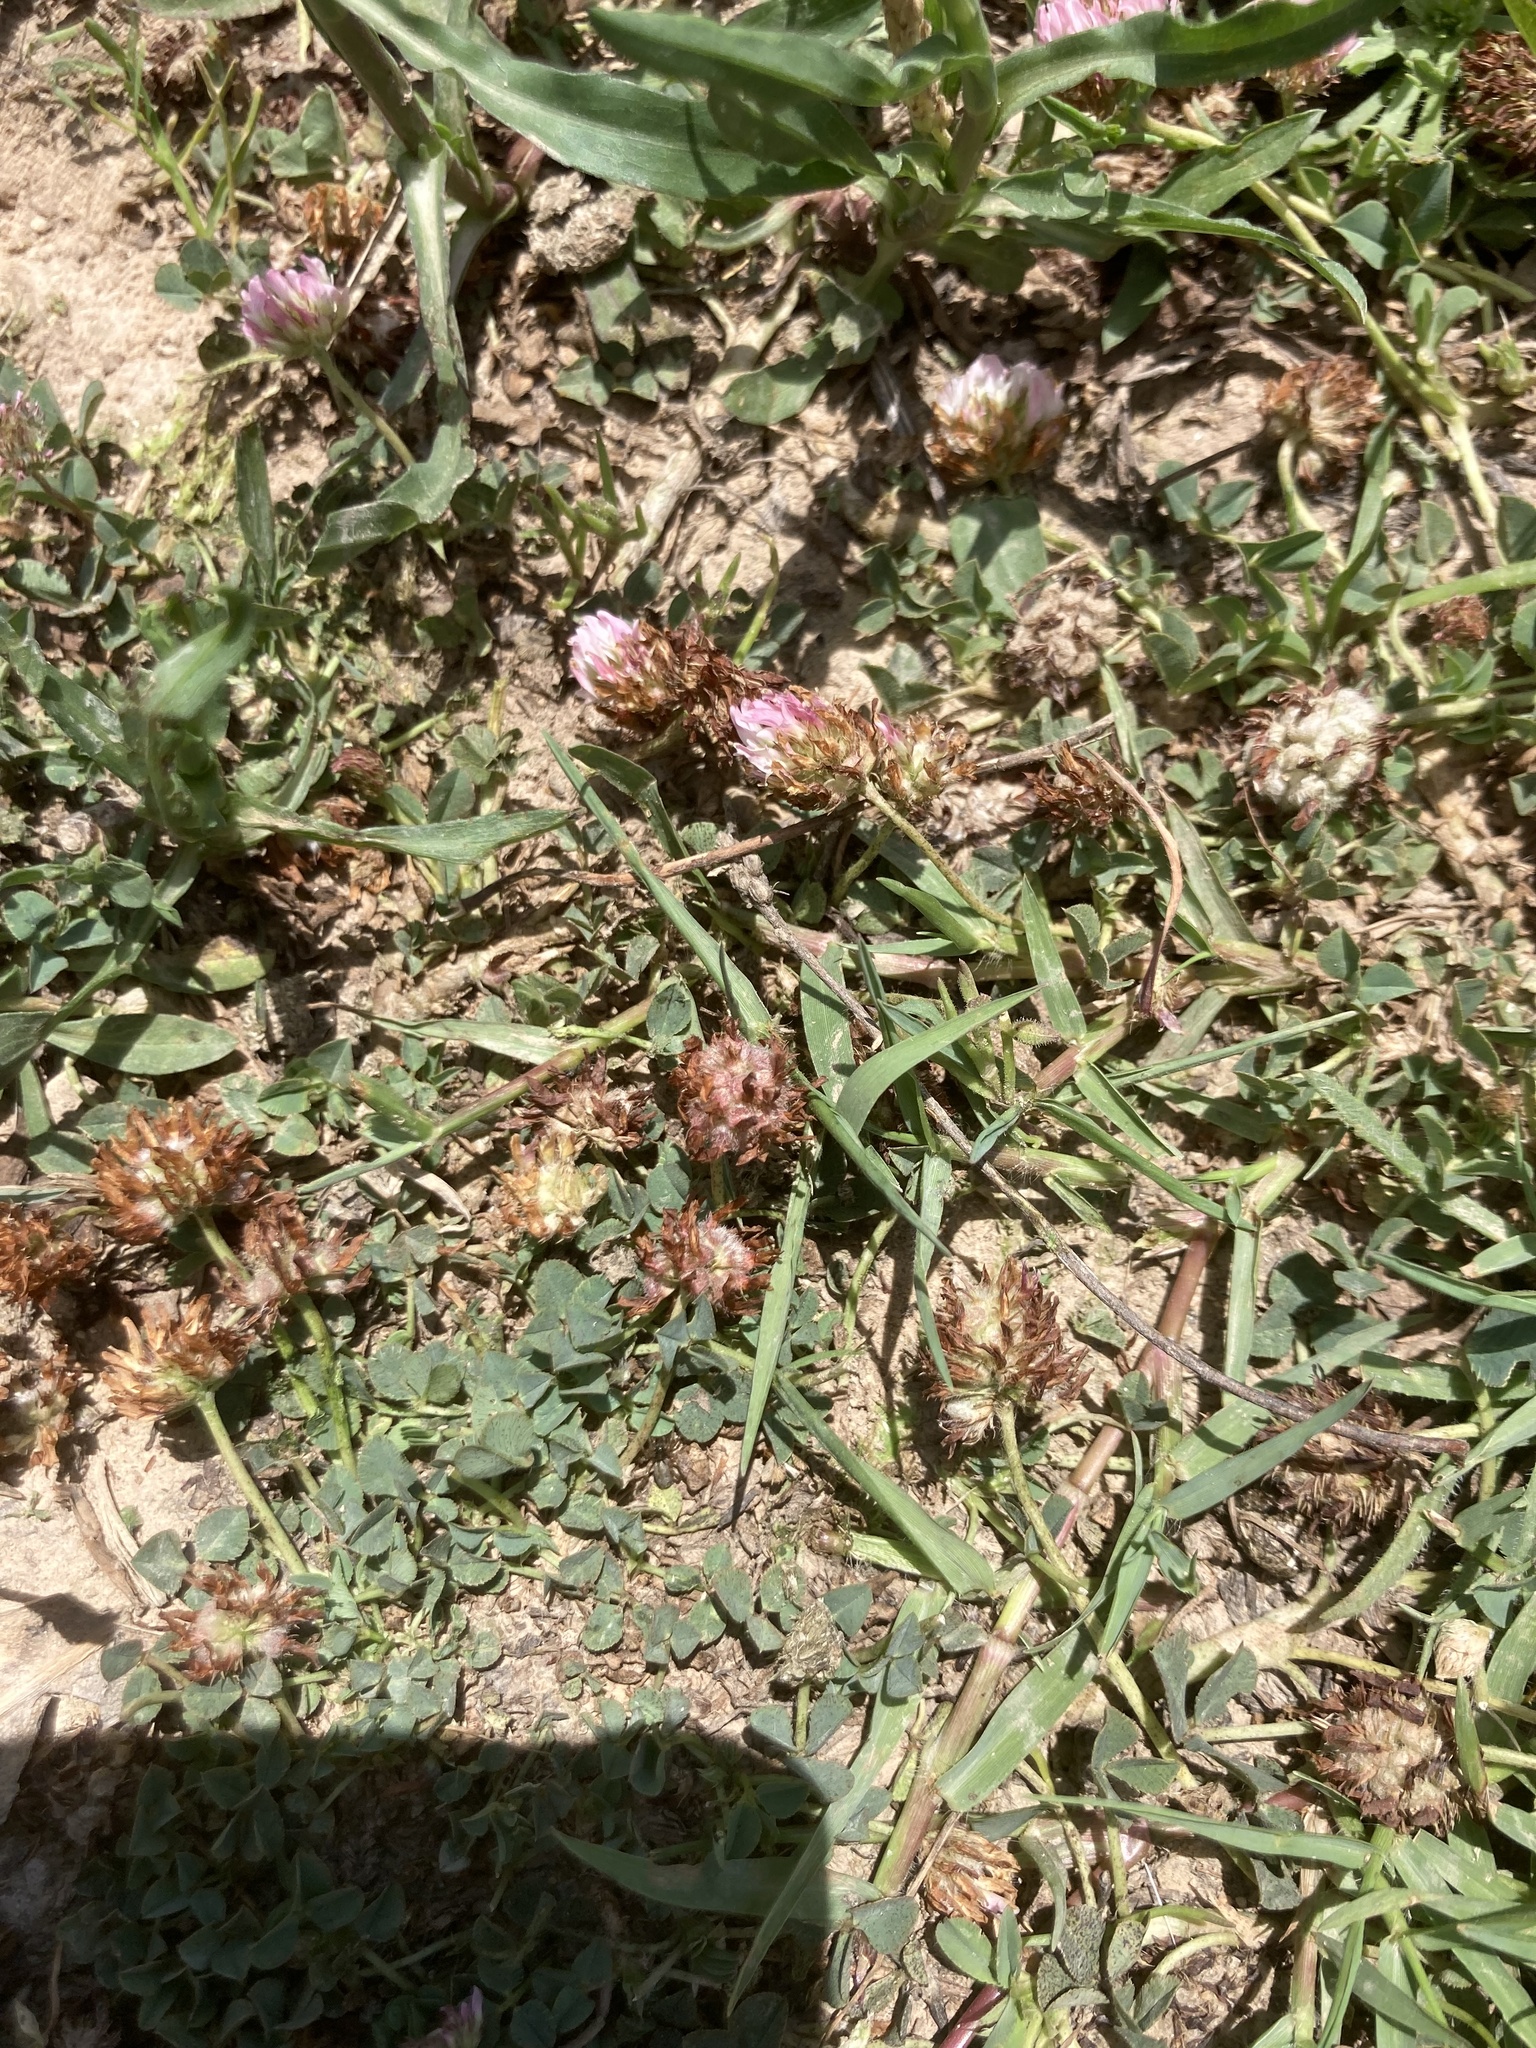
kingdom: Plantae
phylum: Tracheophyta
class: Magnoliopsida
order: Fabales
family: Fabaceae
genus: Trifolium
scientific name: Trifolium fragiferum
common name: Strawberry clover
